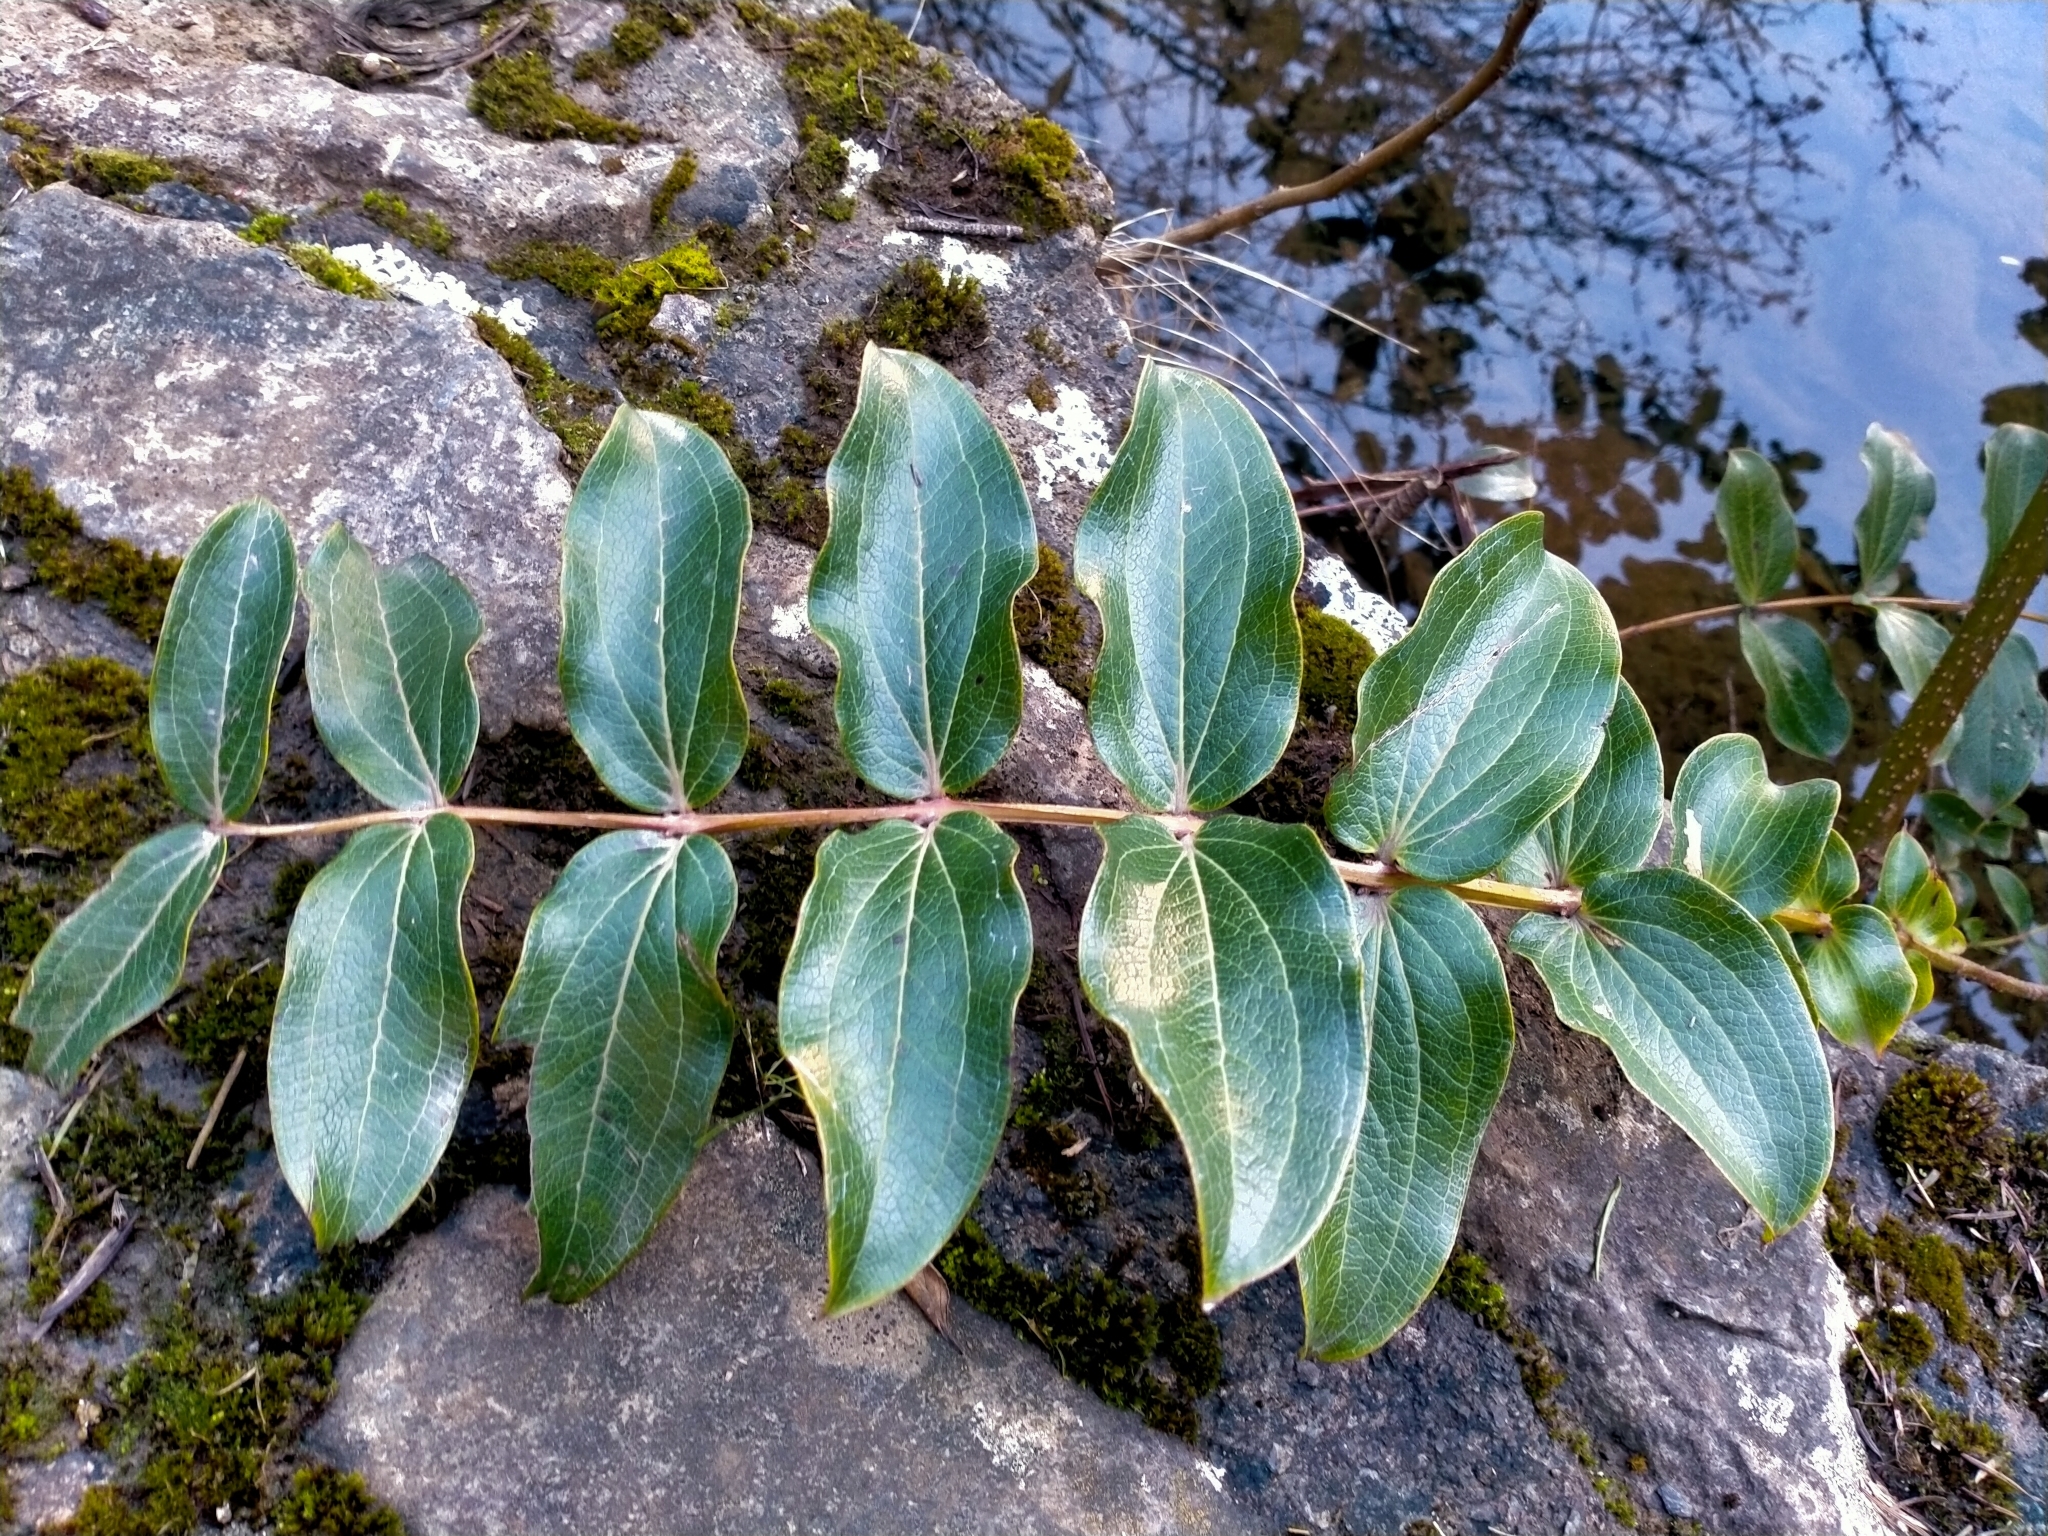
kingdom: Plantae
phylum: Tracheophyta
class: Magnoliopsida
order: Cucurbitales
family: Coriariaceae
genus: Coriaria
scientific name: Coriaria arborea
